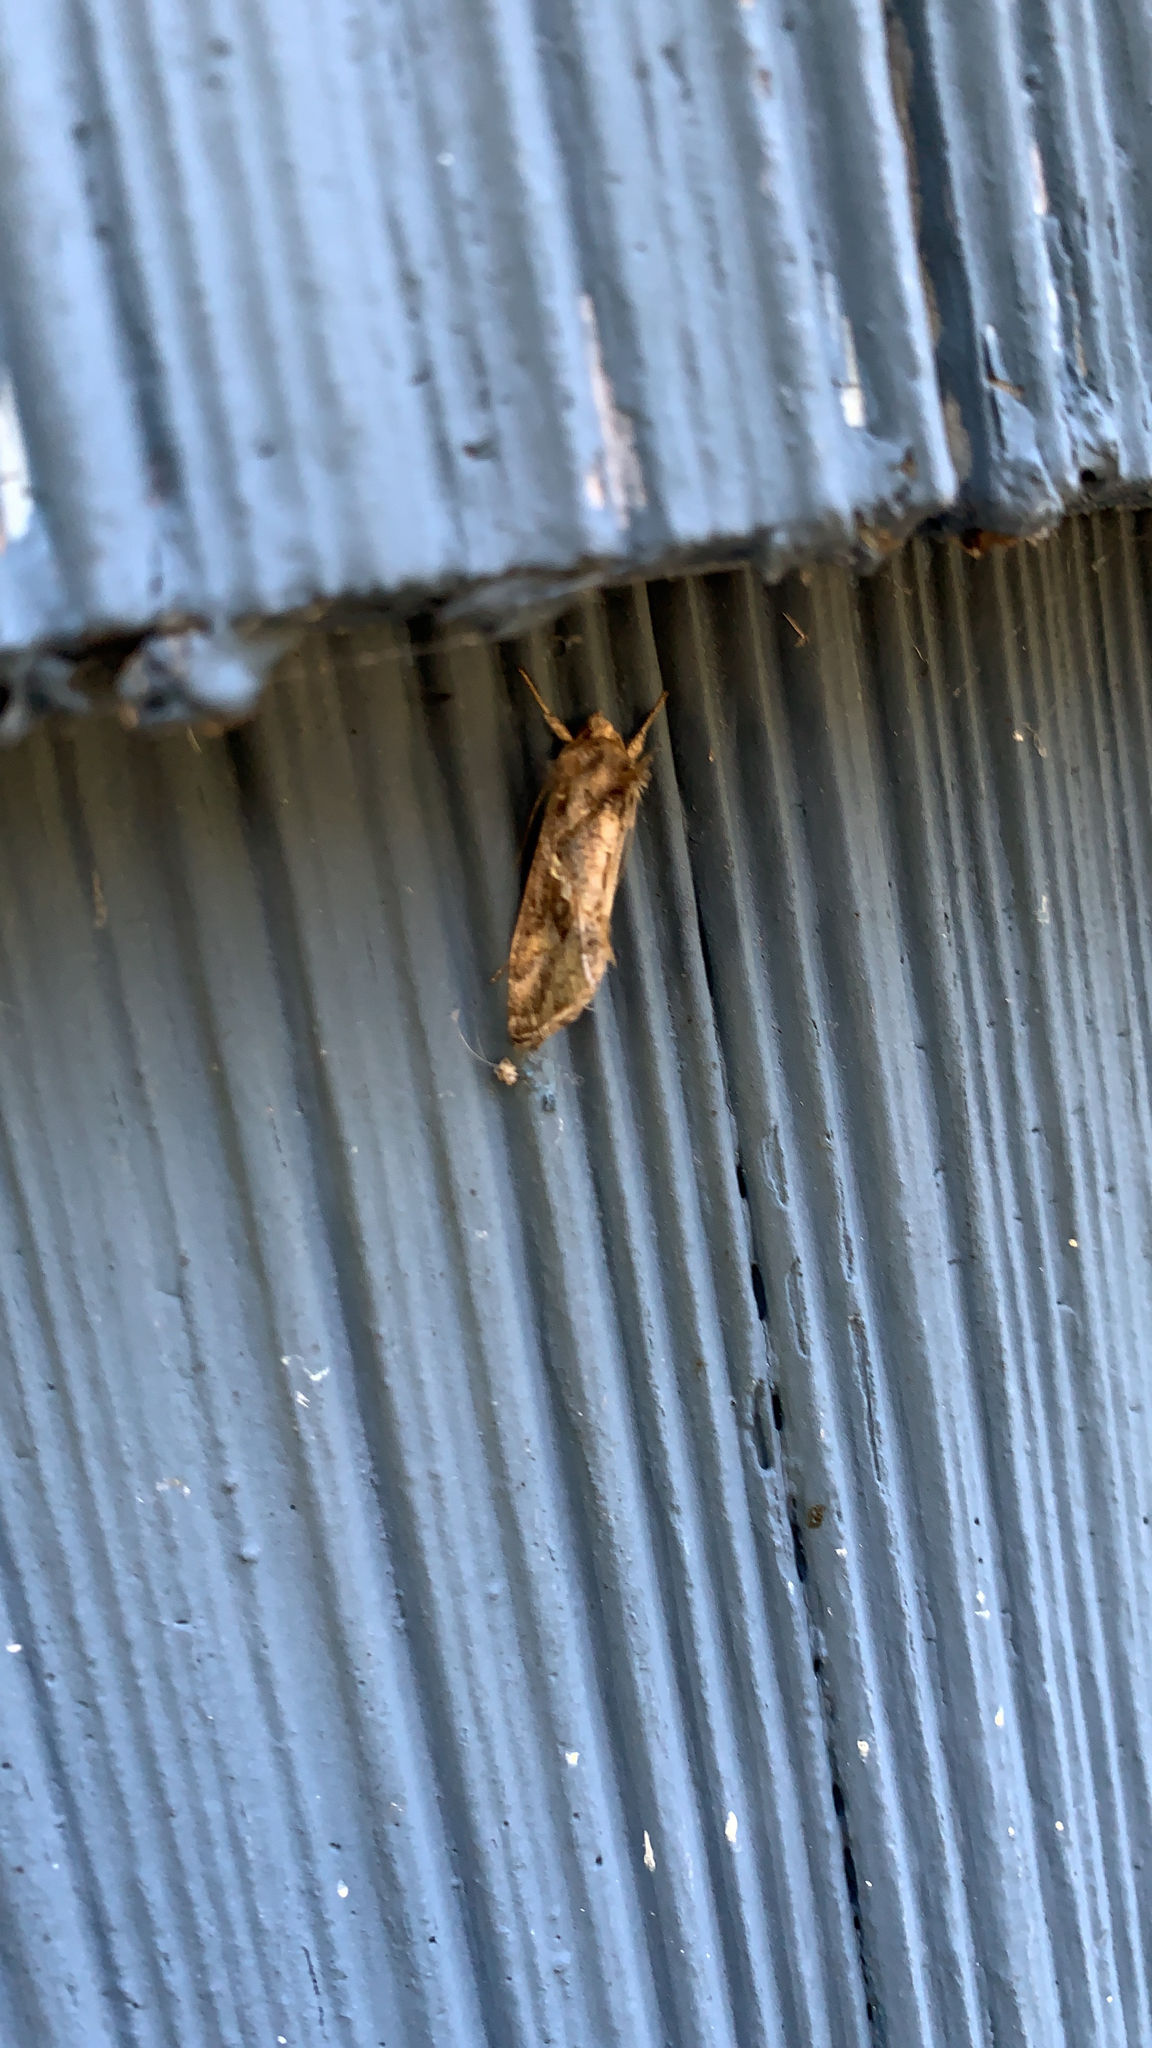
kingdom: Animalia
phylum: Arthropoda
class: Insecta
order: Lepidoptera
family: Noctuidae
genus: Chrysodeixis
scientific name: Chrysodeixis includens
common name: Cutworm moth
